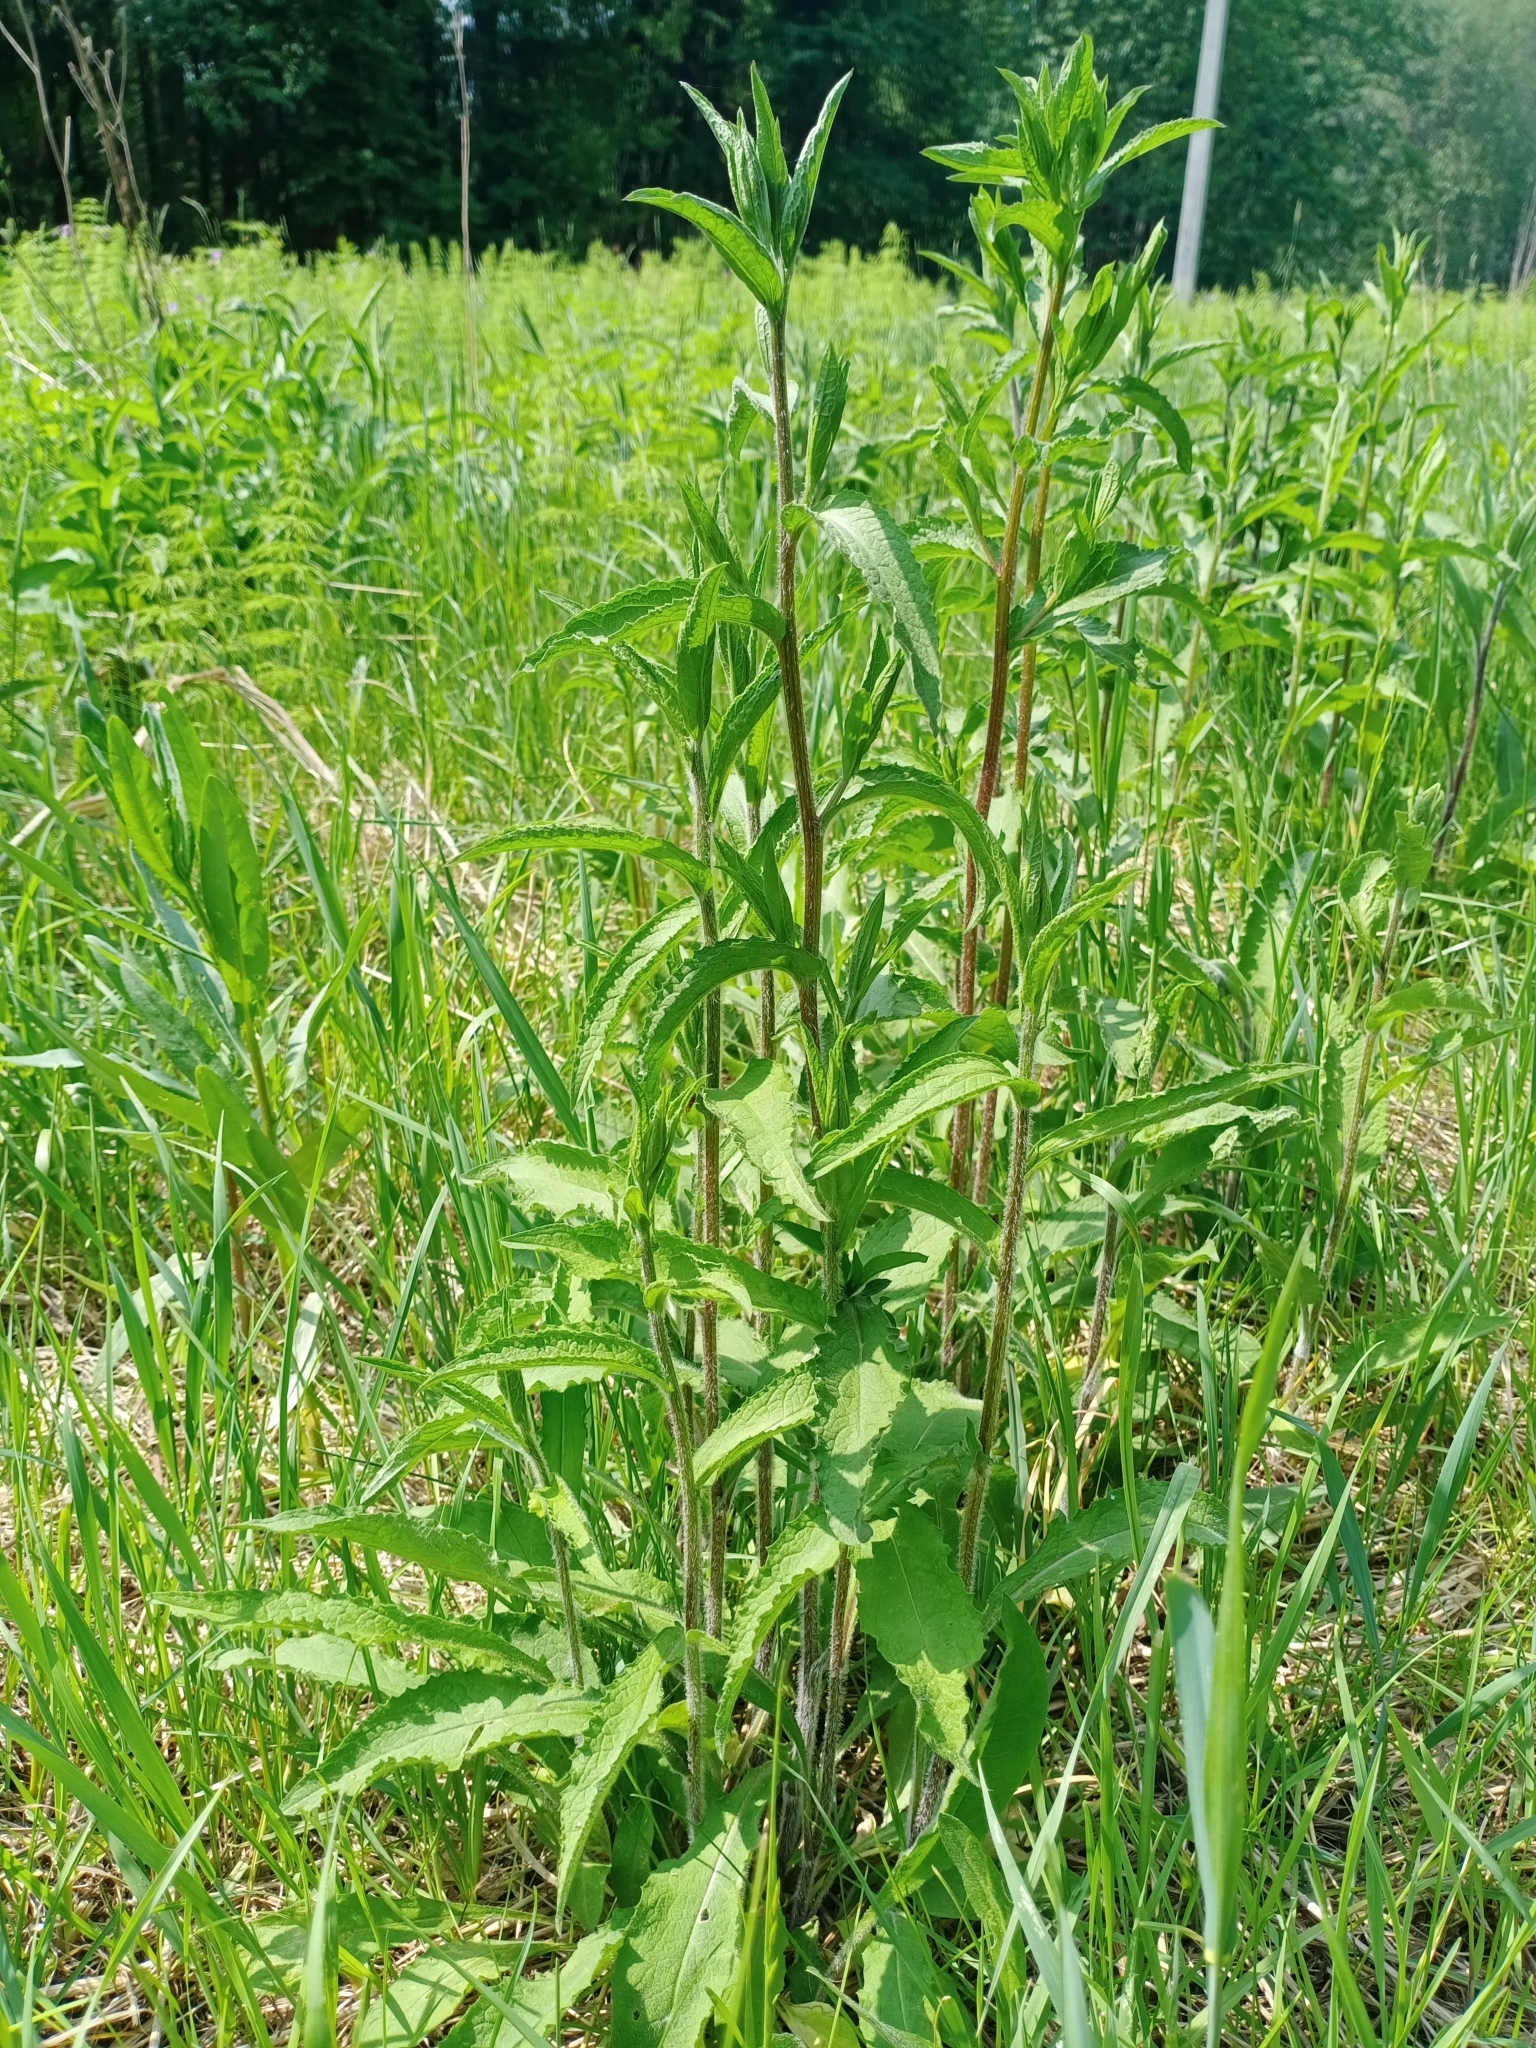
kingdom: Plantae
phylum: Tracheophyta
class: Magnoliopsida
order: Asterales
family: Asteraceae
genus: Centaurea
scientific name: Centaurea pseudophrygia
